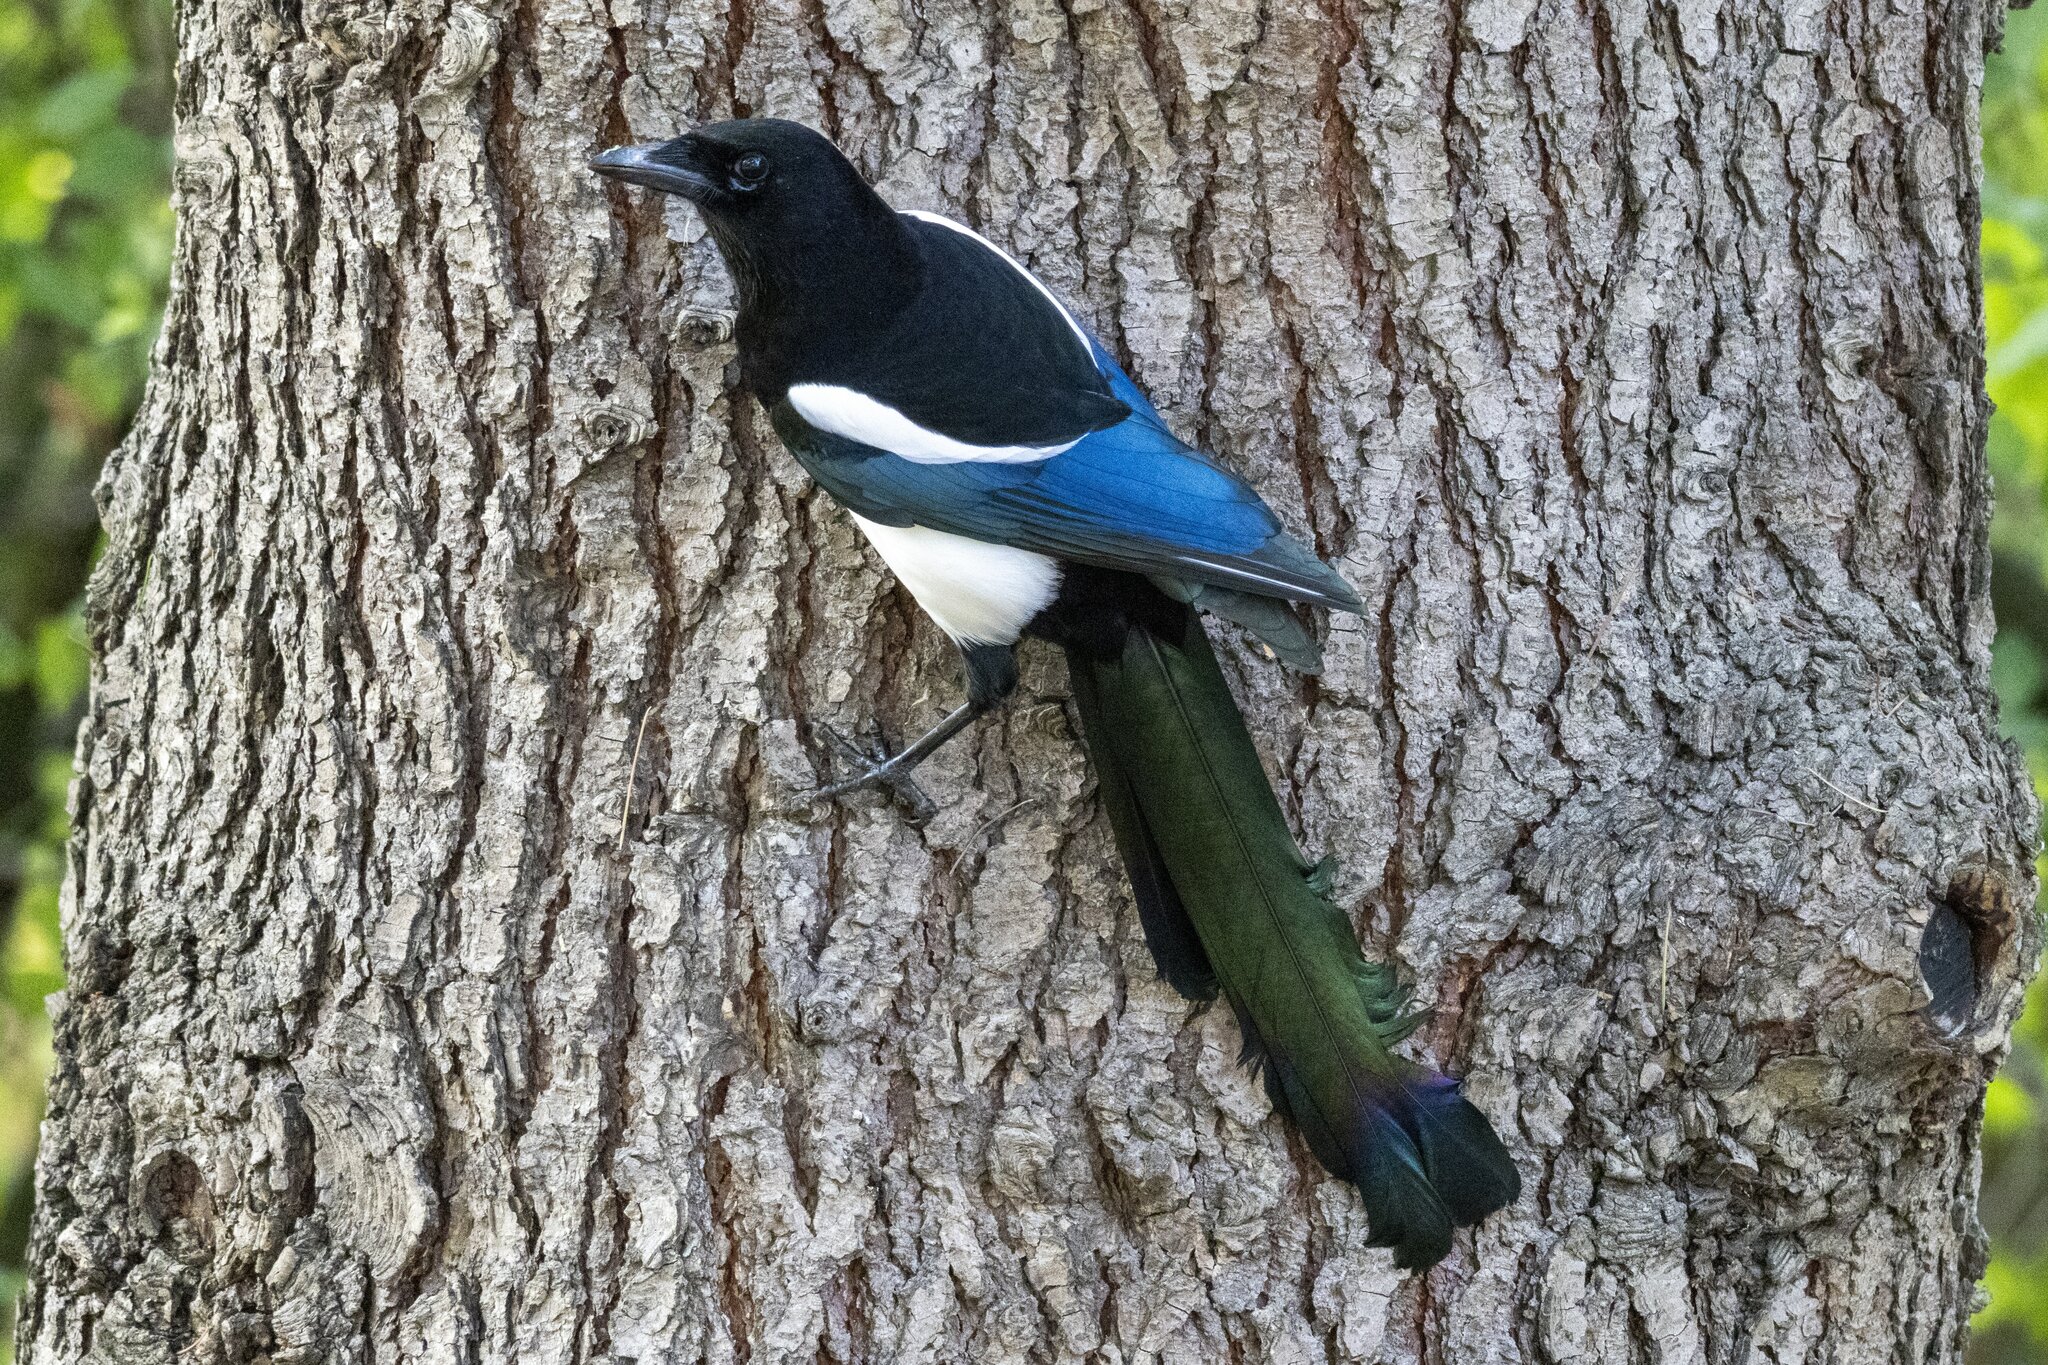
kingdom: Animalia
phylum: Chordata
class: Aves
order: Passeriformes
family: Corvidae
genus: Pica
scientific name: Pica pica
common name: Eurasian magpie
